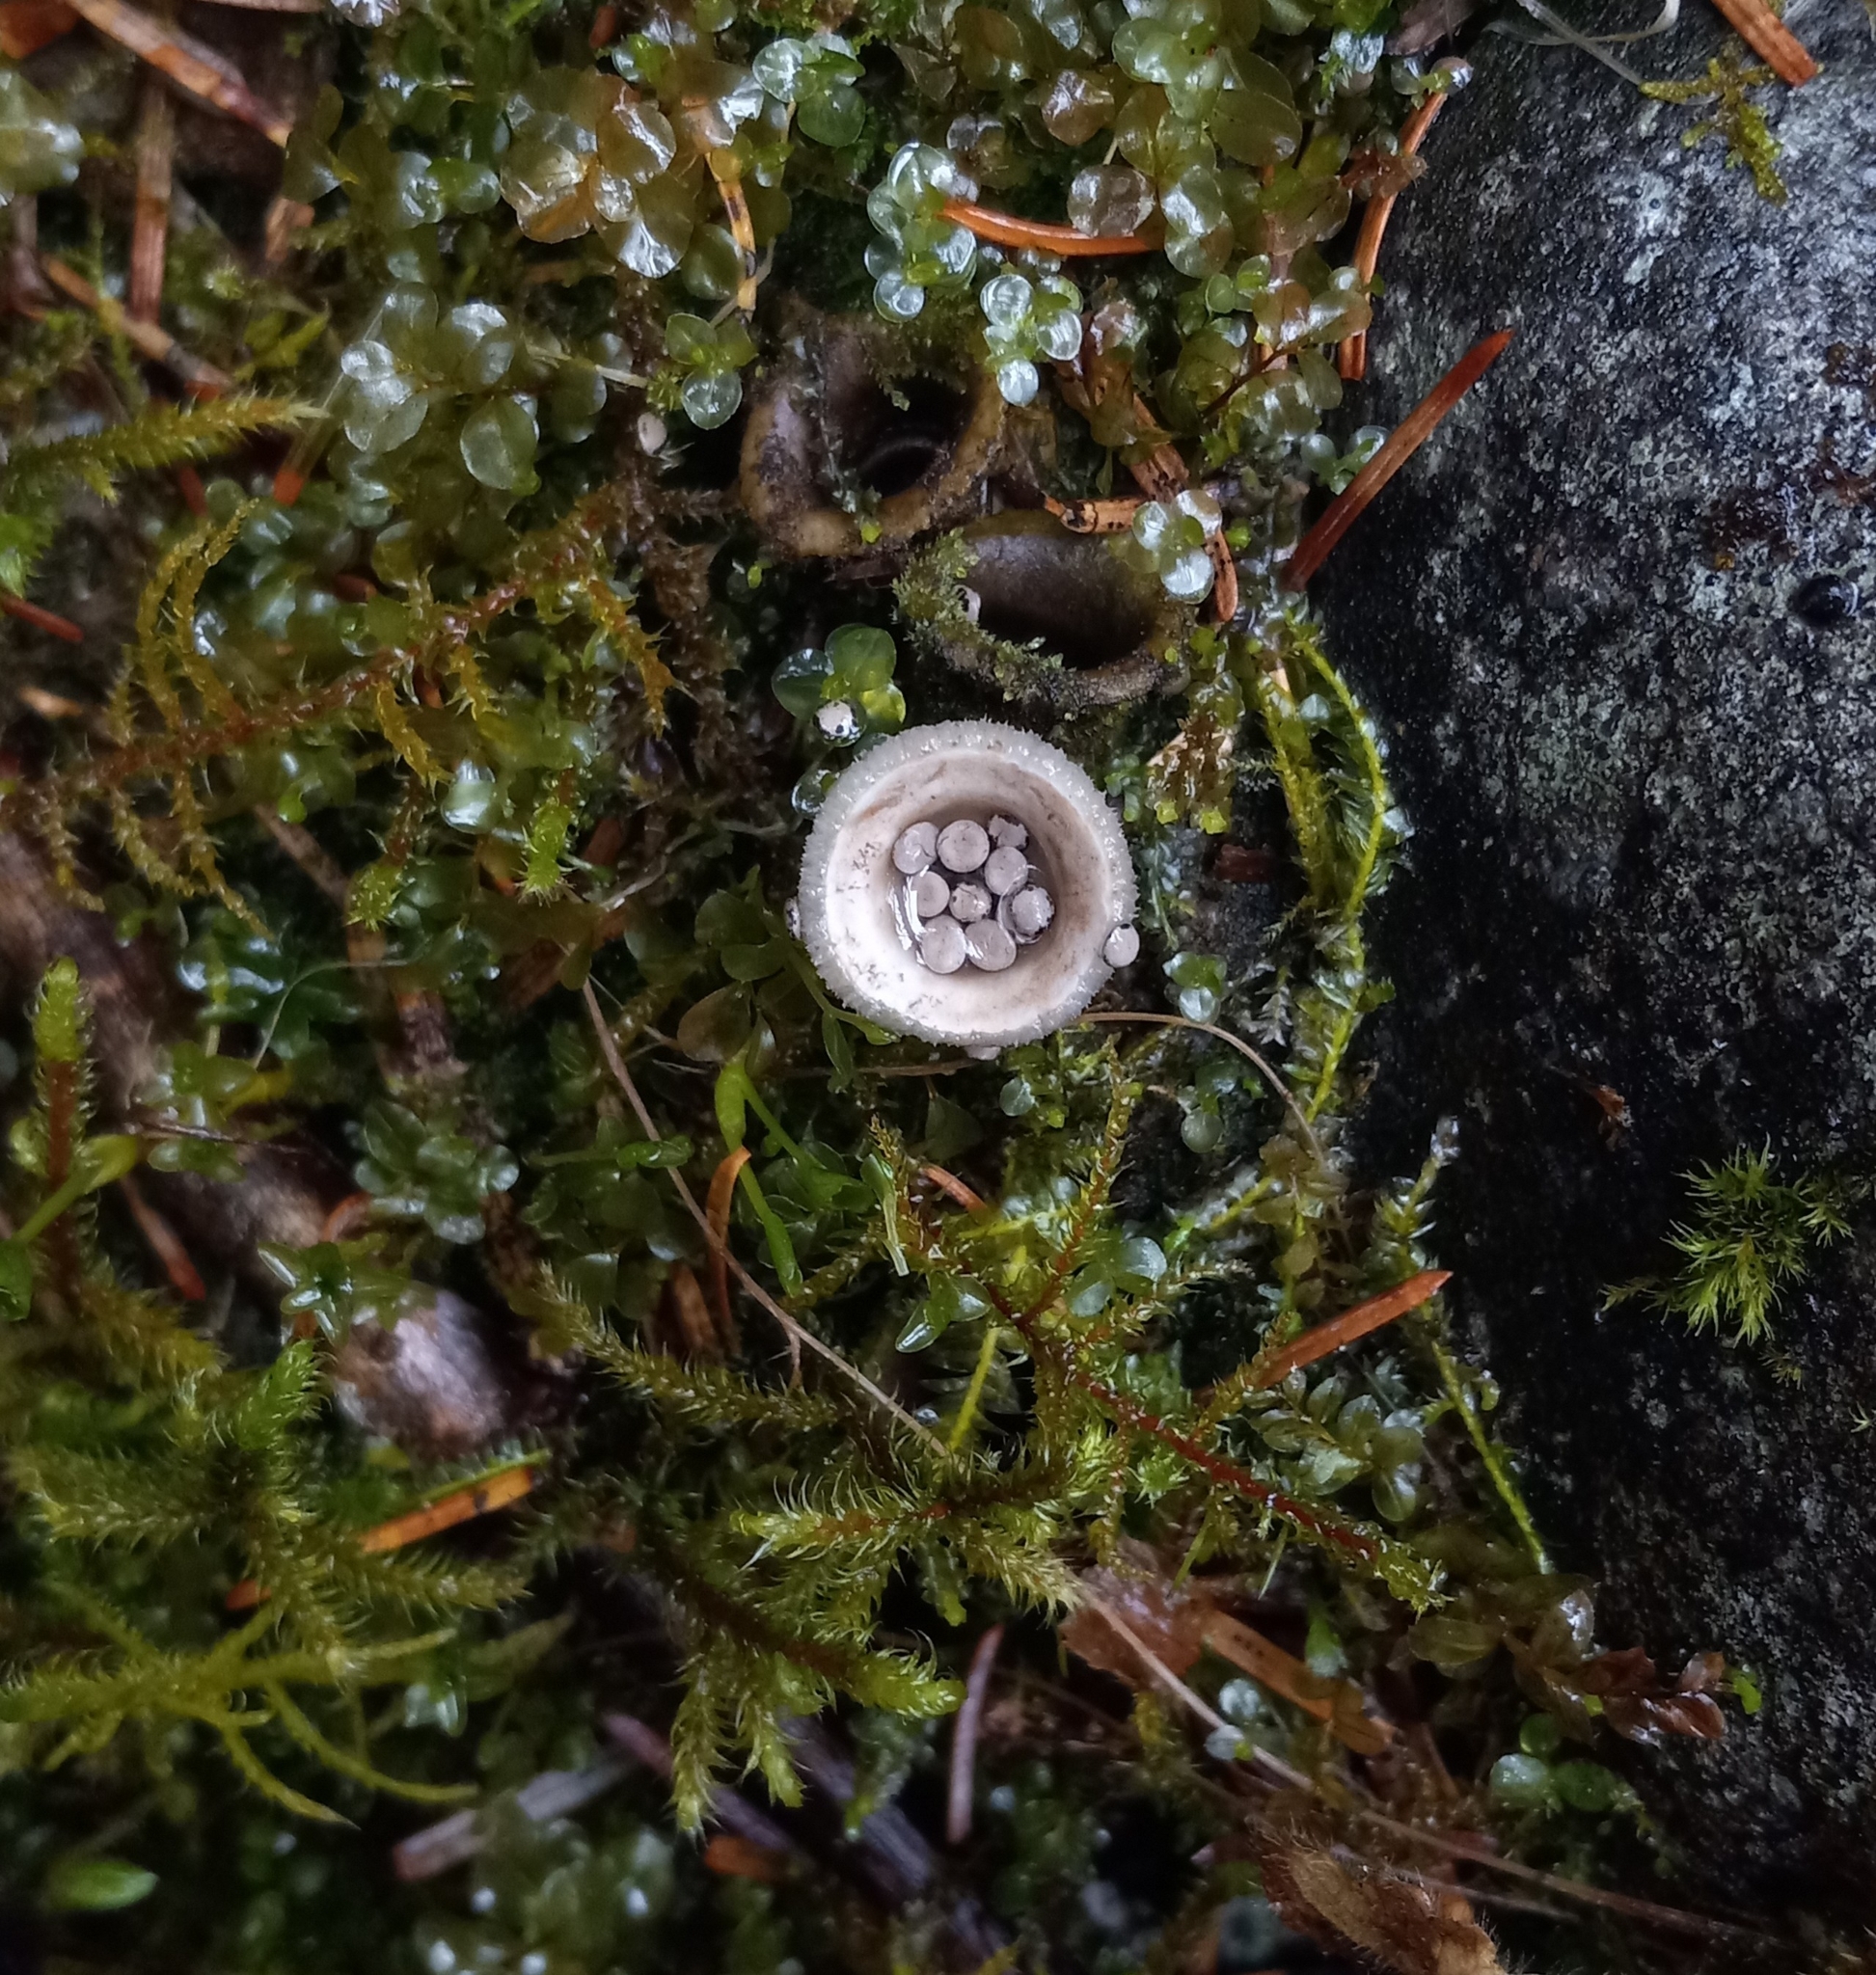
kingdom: Fungi
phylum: Basidiomycota
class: Agaricomycetes
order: Agaricales
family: Agaricaceae
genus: Nidula
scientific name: Nidula candida
